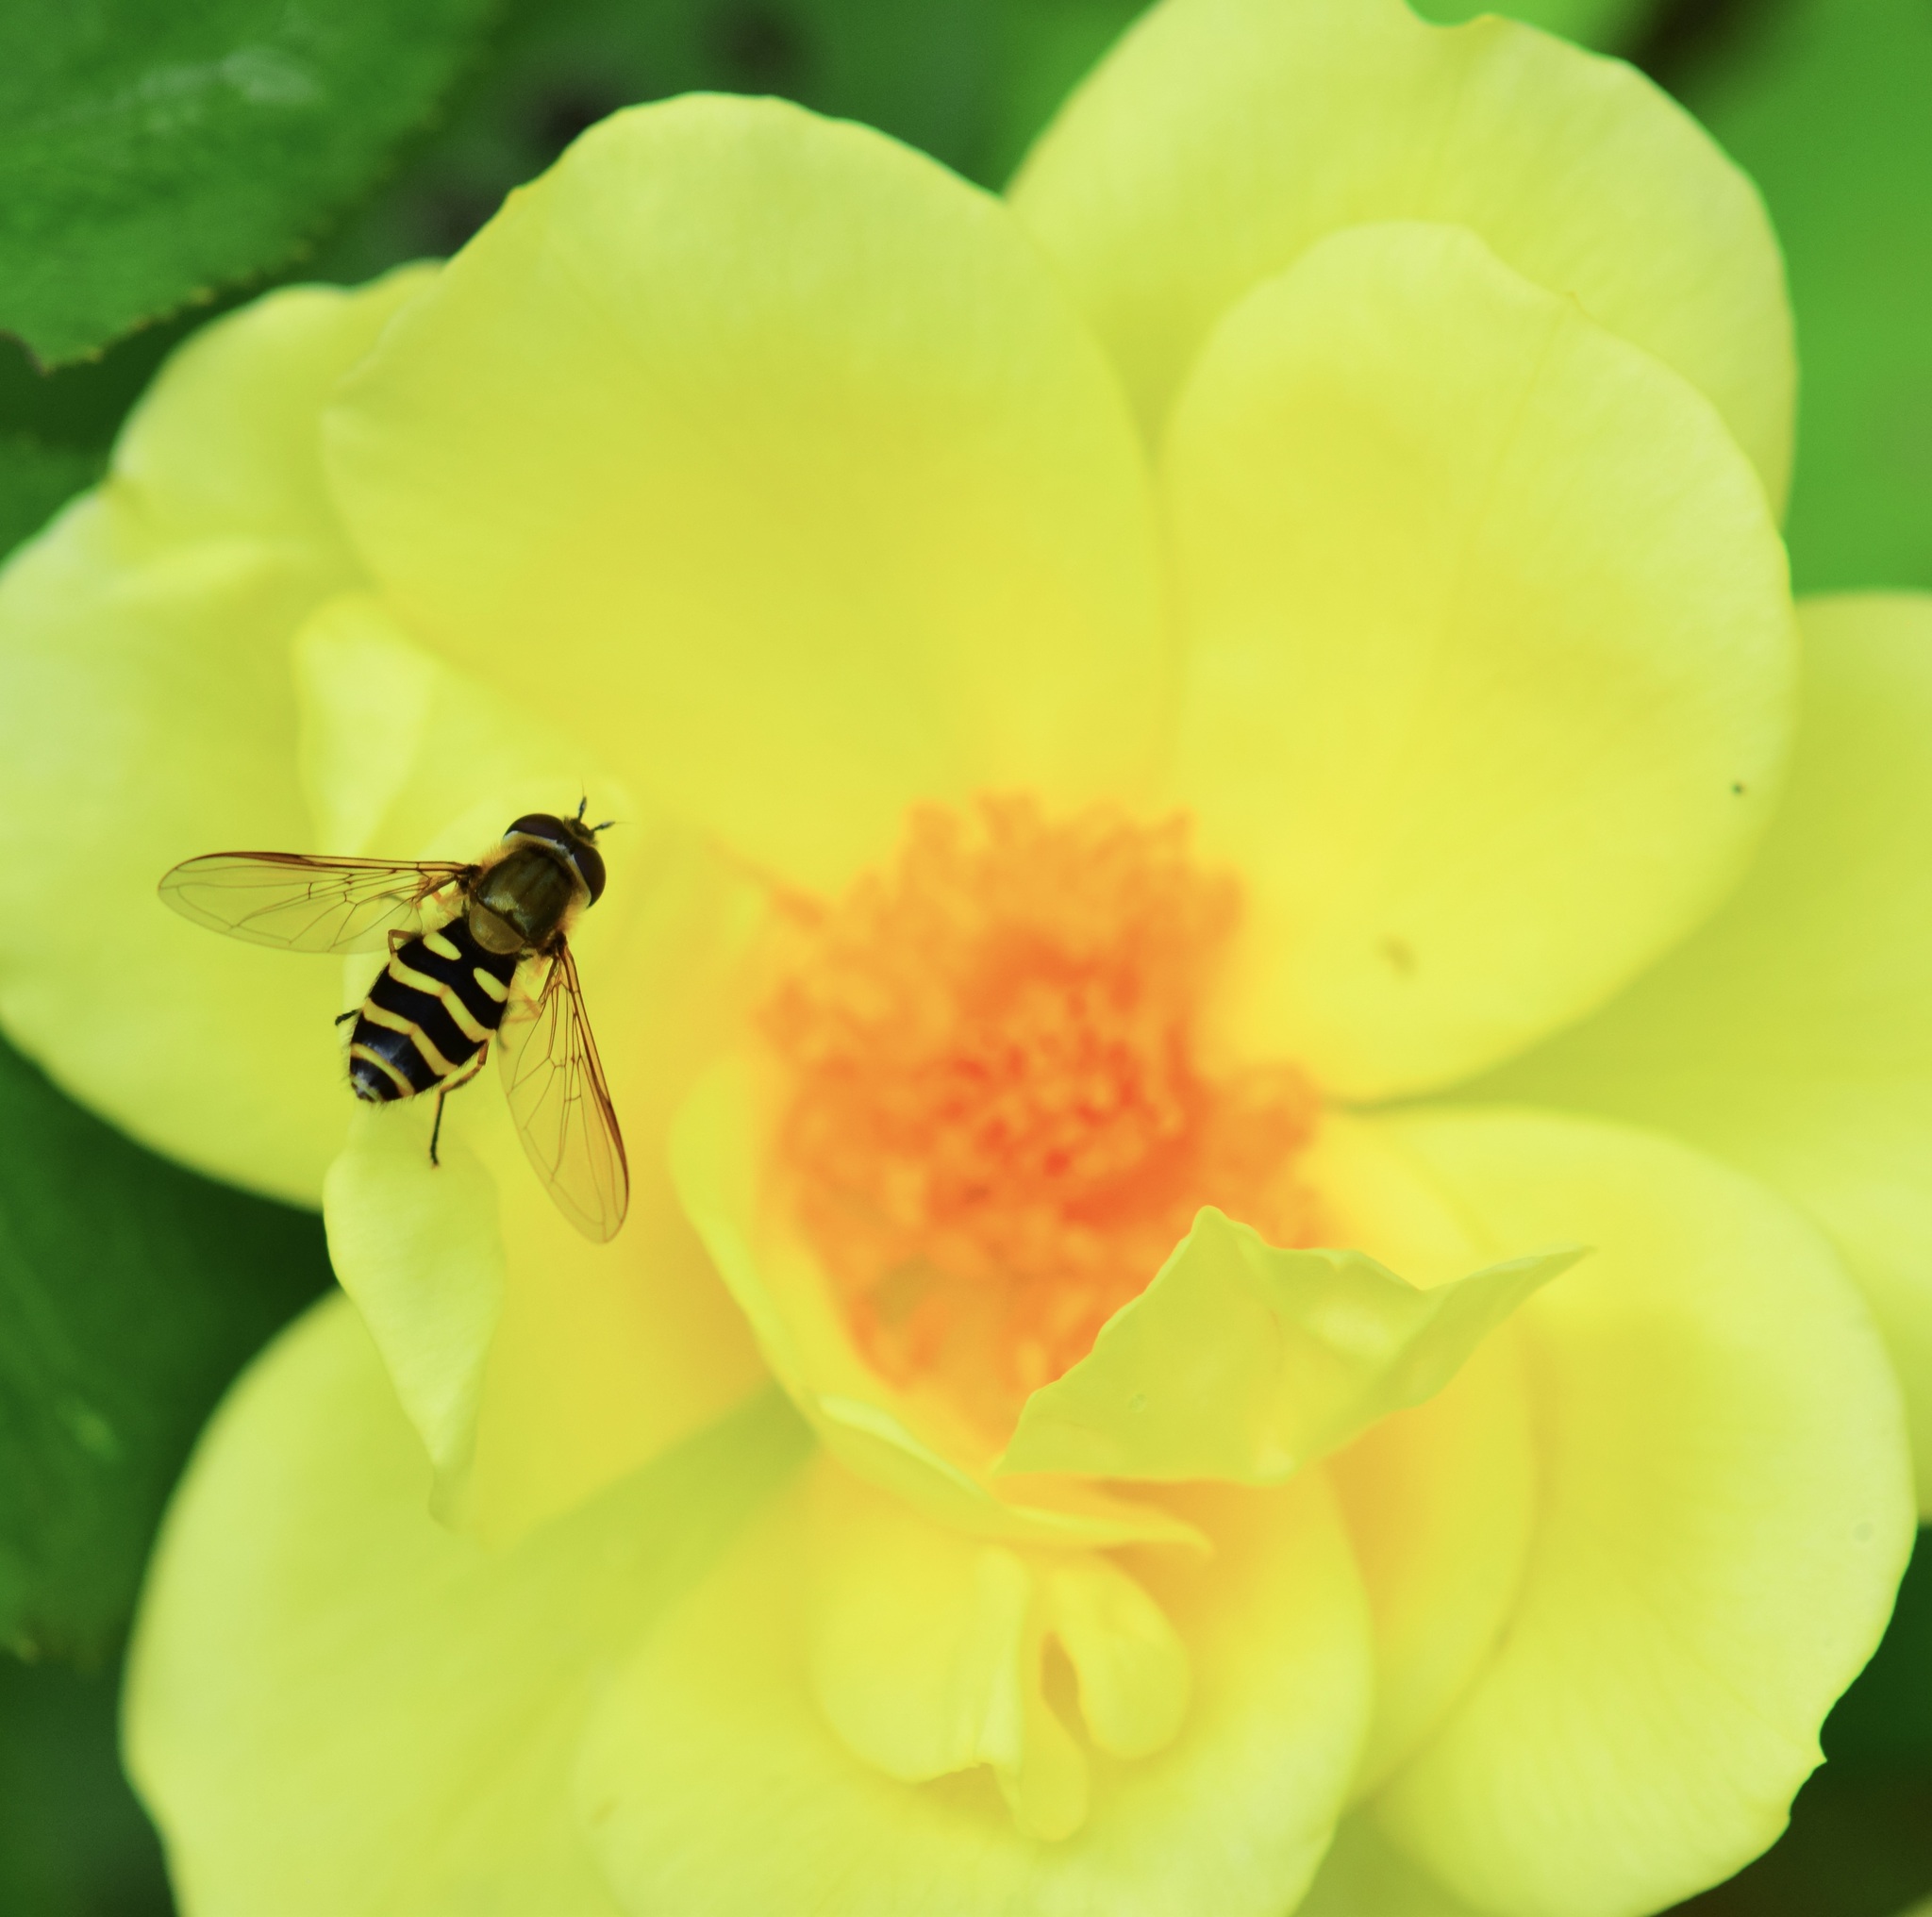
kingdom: Animalia
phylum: Arthropoda
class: Insecta
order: Diptera
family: Syrphidae
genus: Syrphus
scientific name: Syrphus
